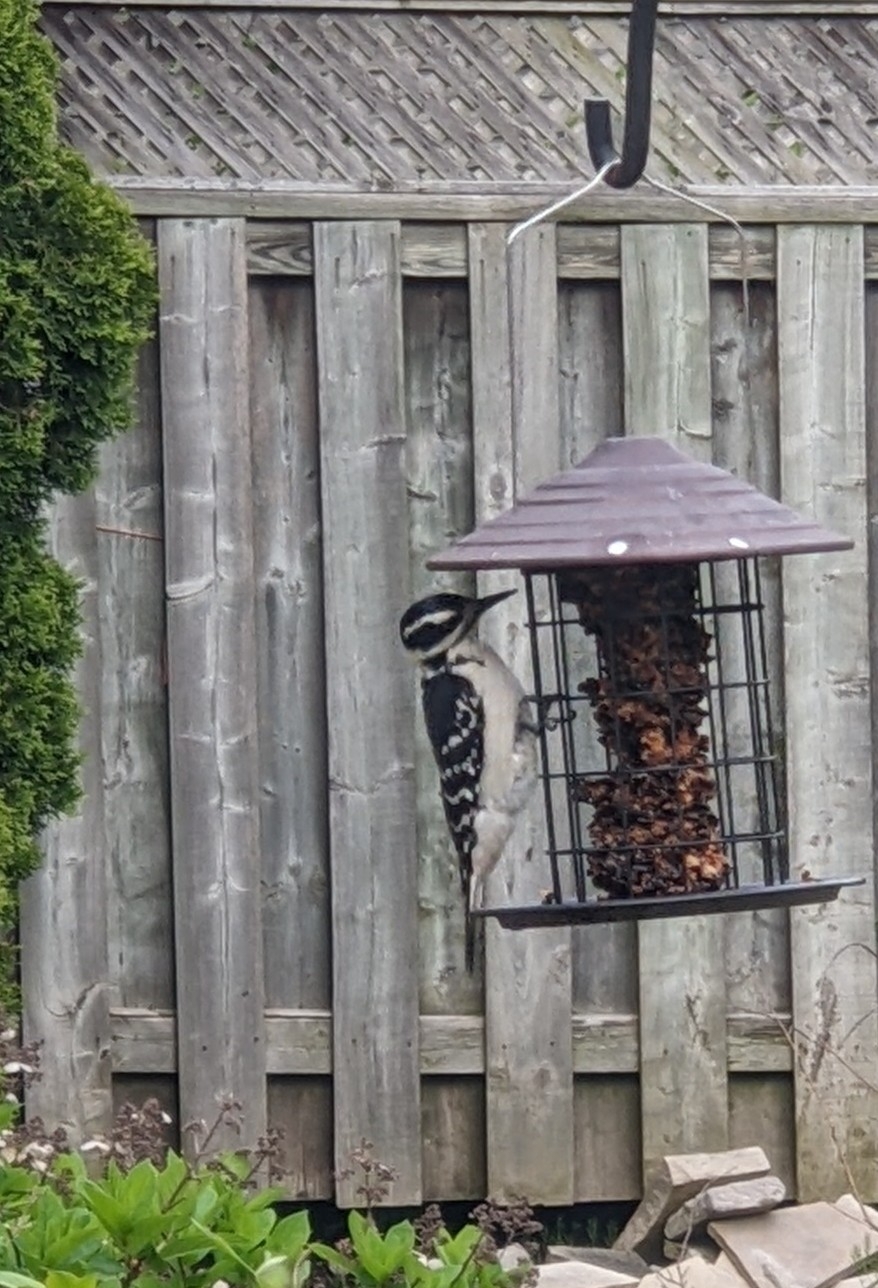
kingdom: Animalia
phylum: Chordata
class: Aves
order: Piciformes
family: Picidae
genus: Leuconotopicus
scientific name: Leuconotopicus villosus
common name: Hairy woodpecker
